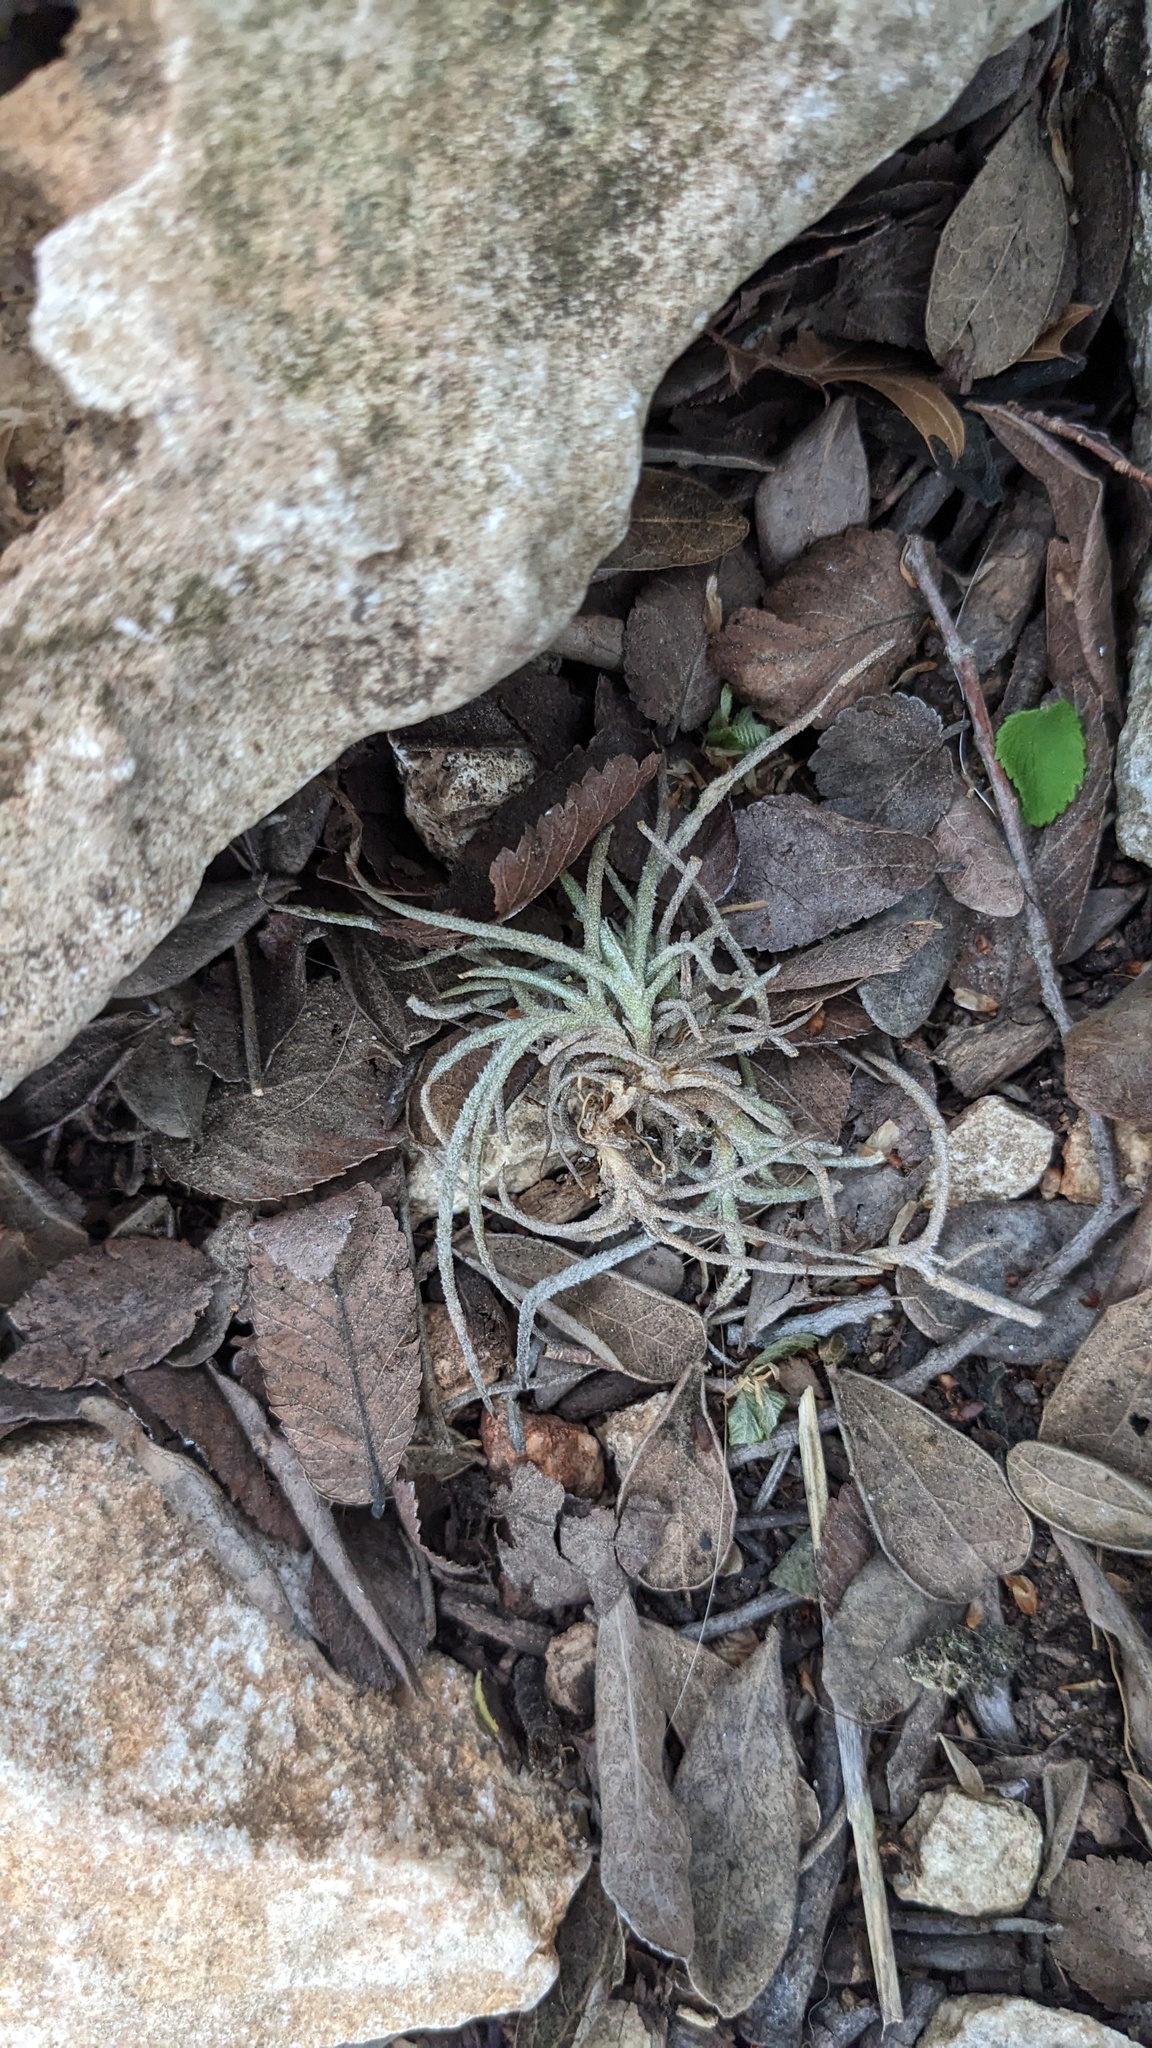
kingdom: Plantae
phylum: Tracheophyta
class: Liliopsida
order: Poales
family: Bromeliaceae
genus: Tillandsia
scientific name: Tillandsia recurvata
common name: Small ballmoss
